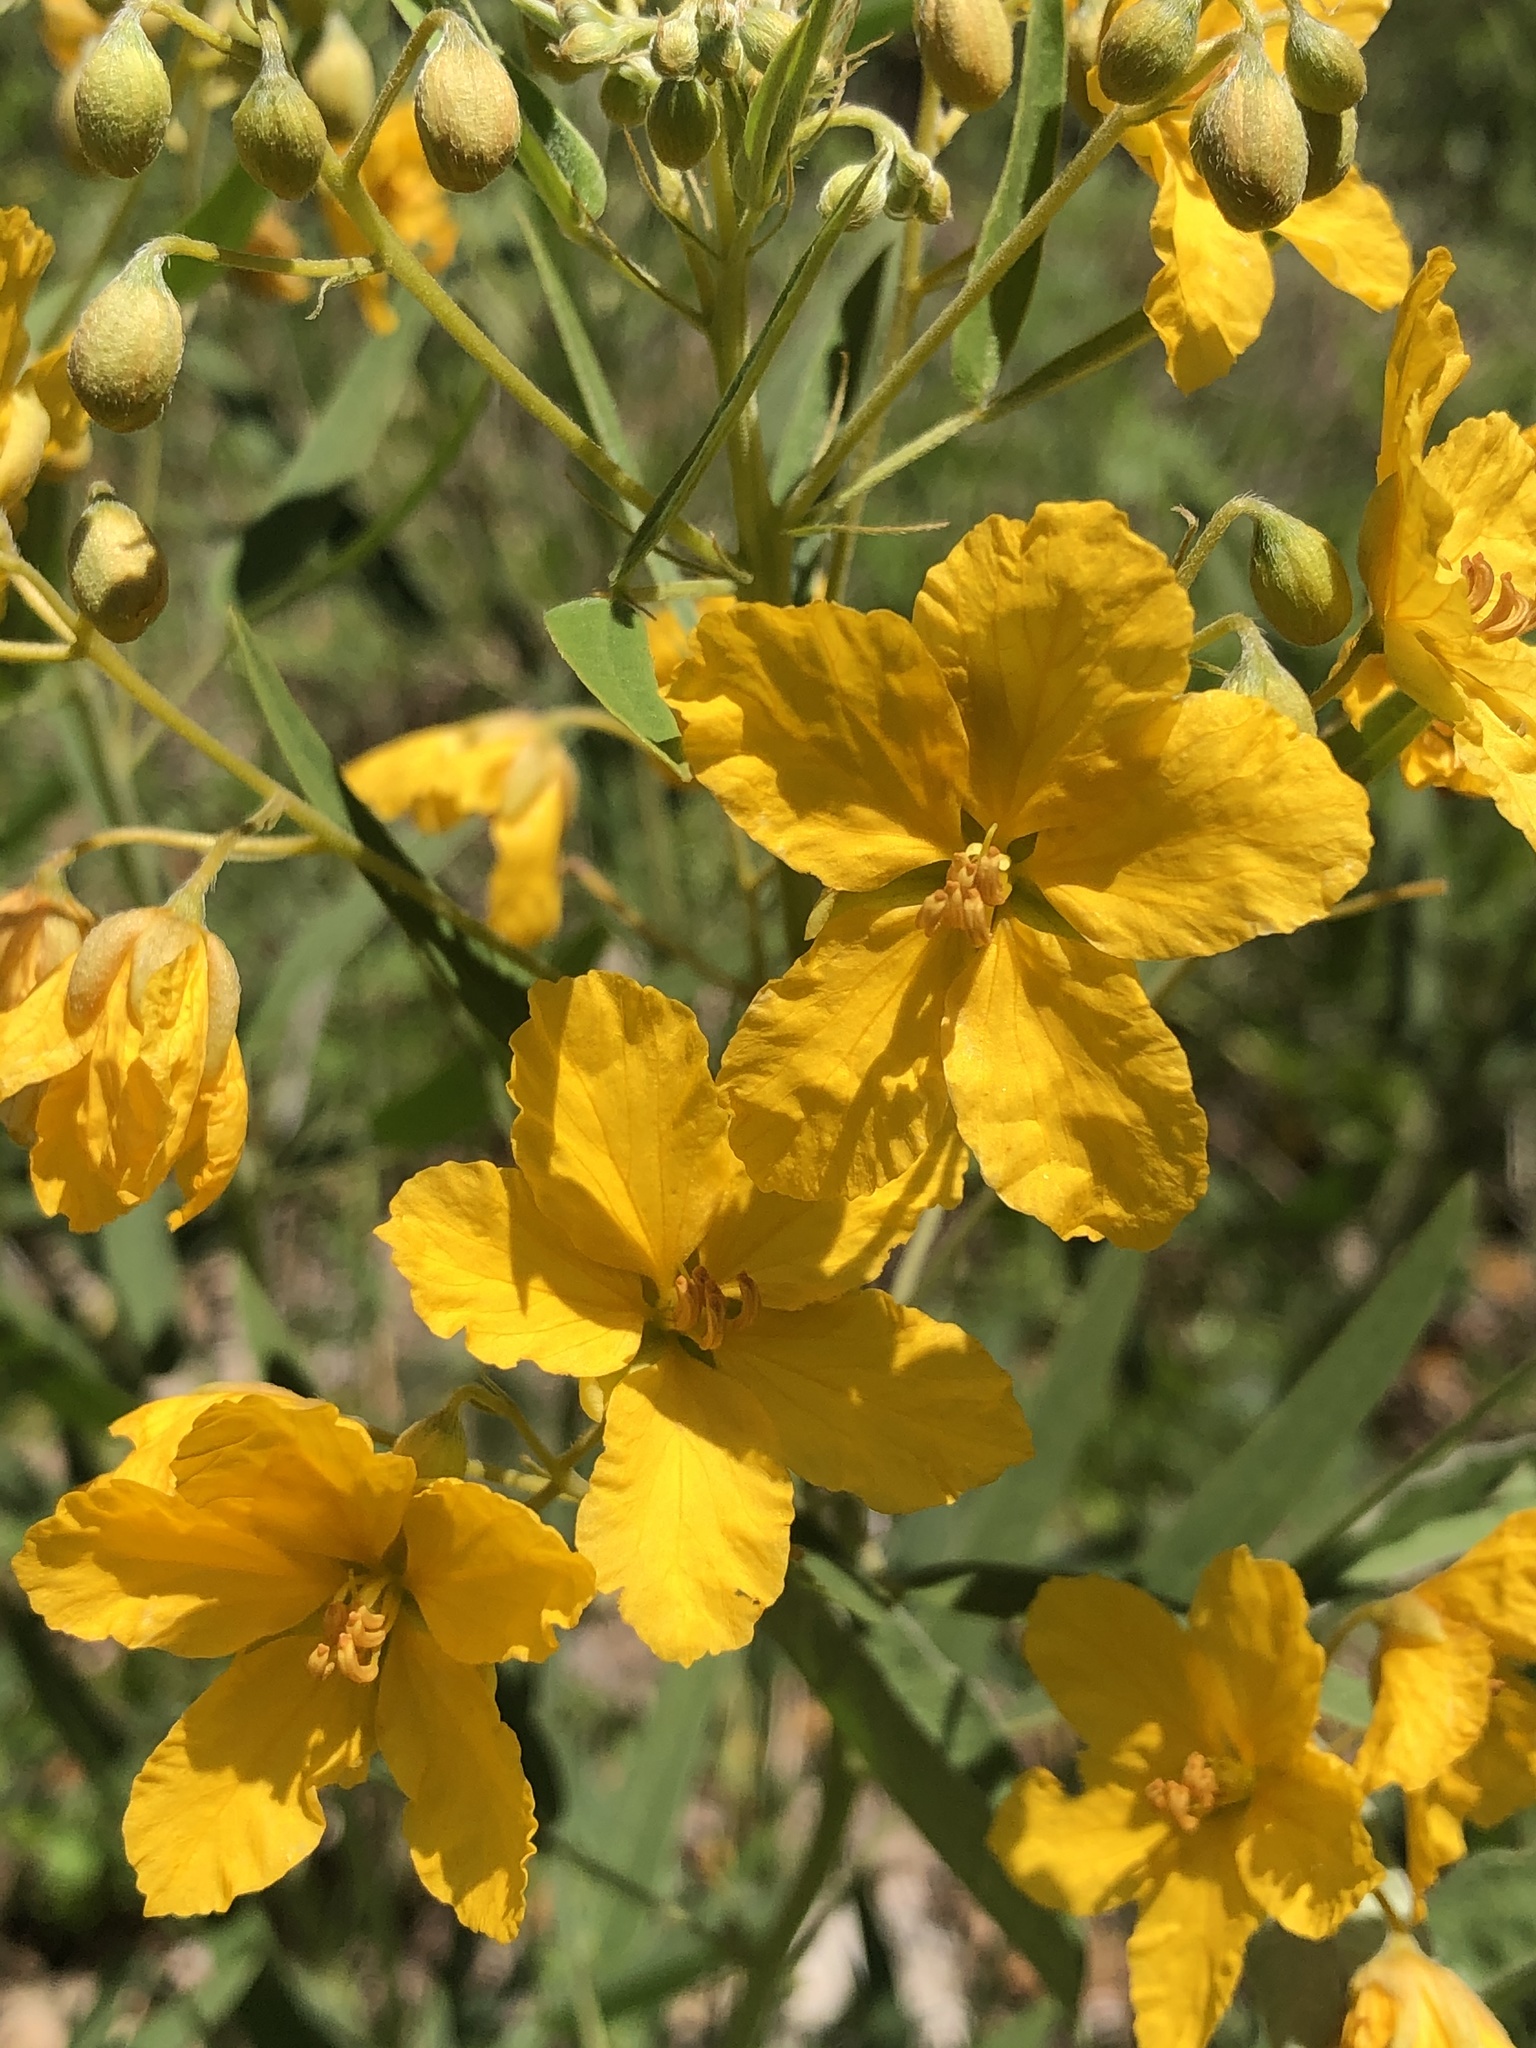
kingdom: Plantae
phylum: Tracheophyta
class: Magnoliopsida
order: Fabales
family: Fabaceae
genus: Senna
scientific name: Senna roemeriana
